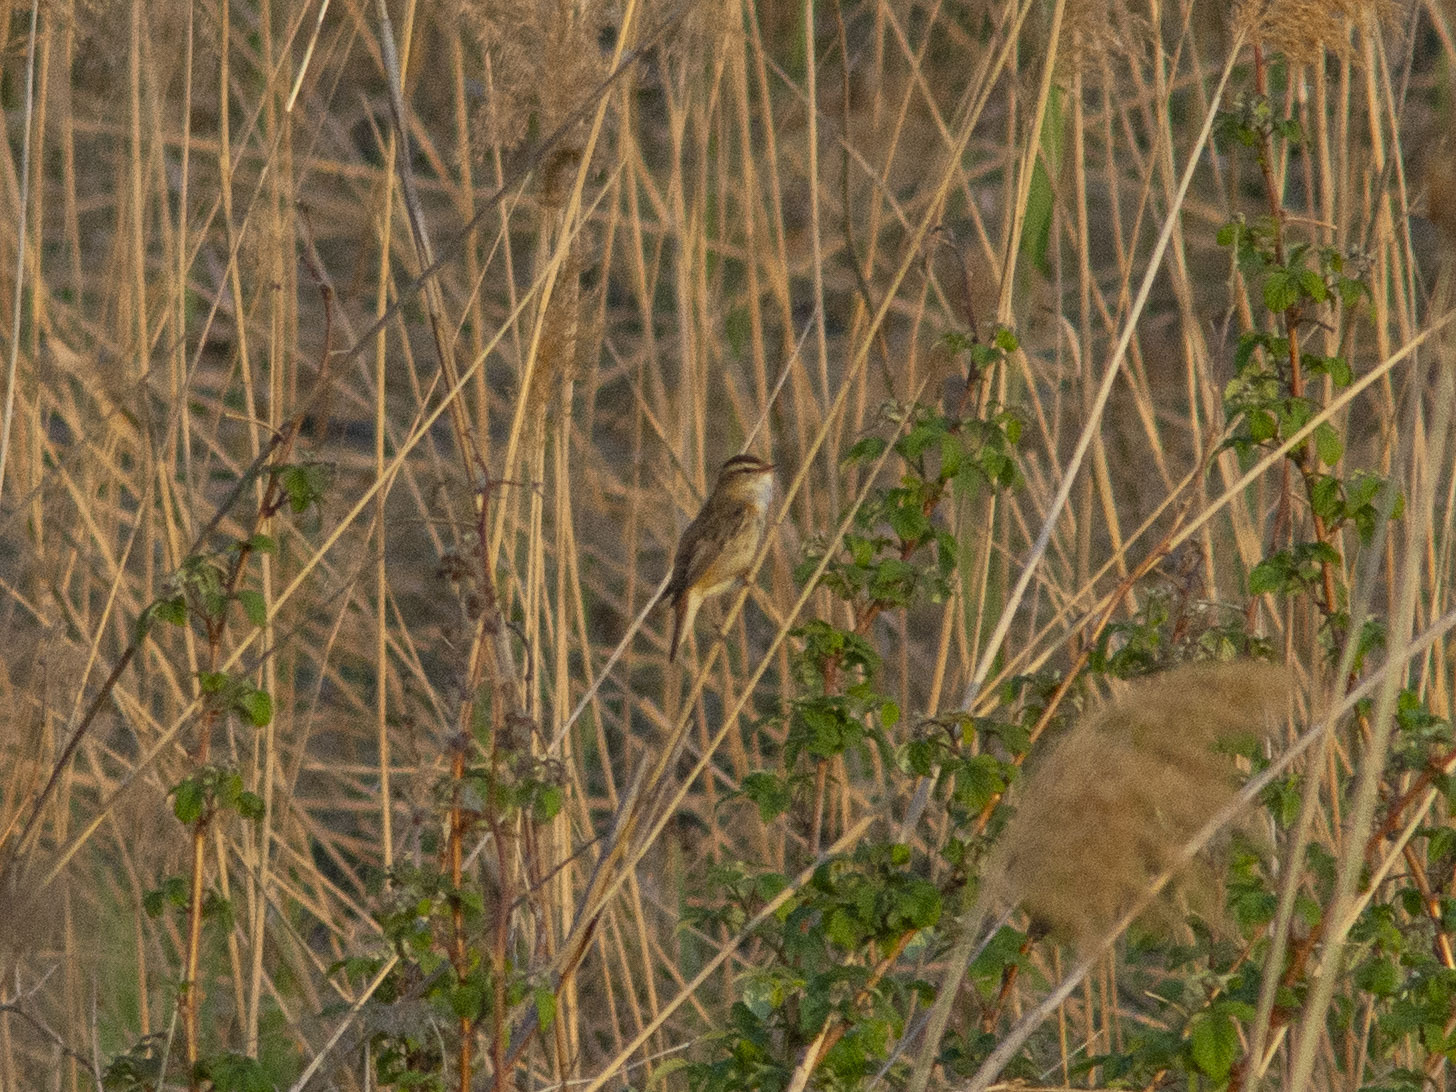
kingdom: Animalia
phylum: Chordata
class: Aves
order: Passeriformes
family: Acrocephalidae
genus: Acrocephalus
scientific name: Acrocephalus schoenobaenus
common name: Sedge warbler
